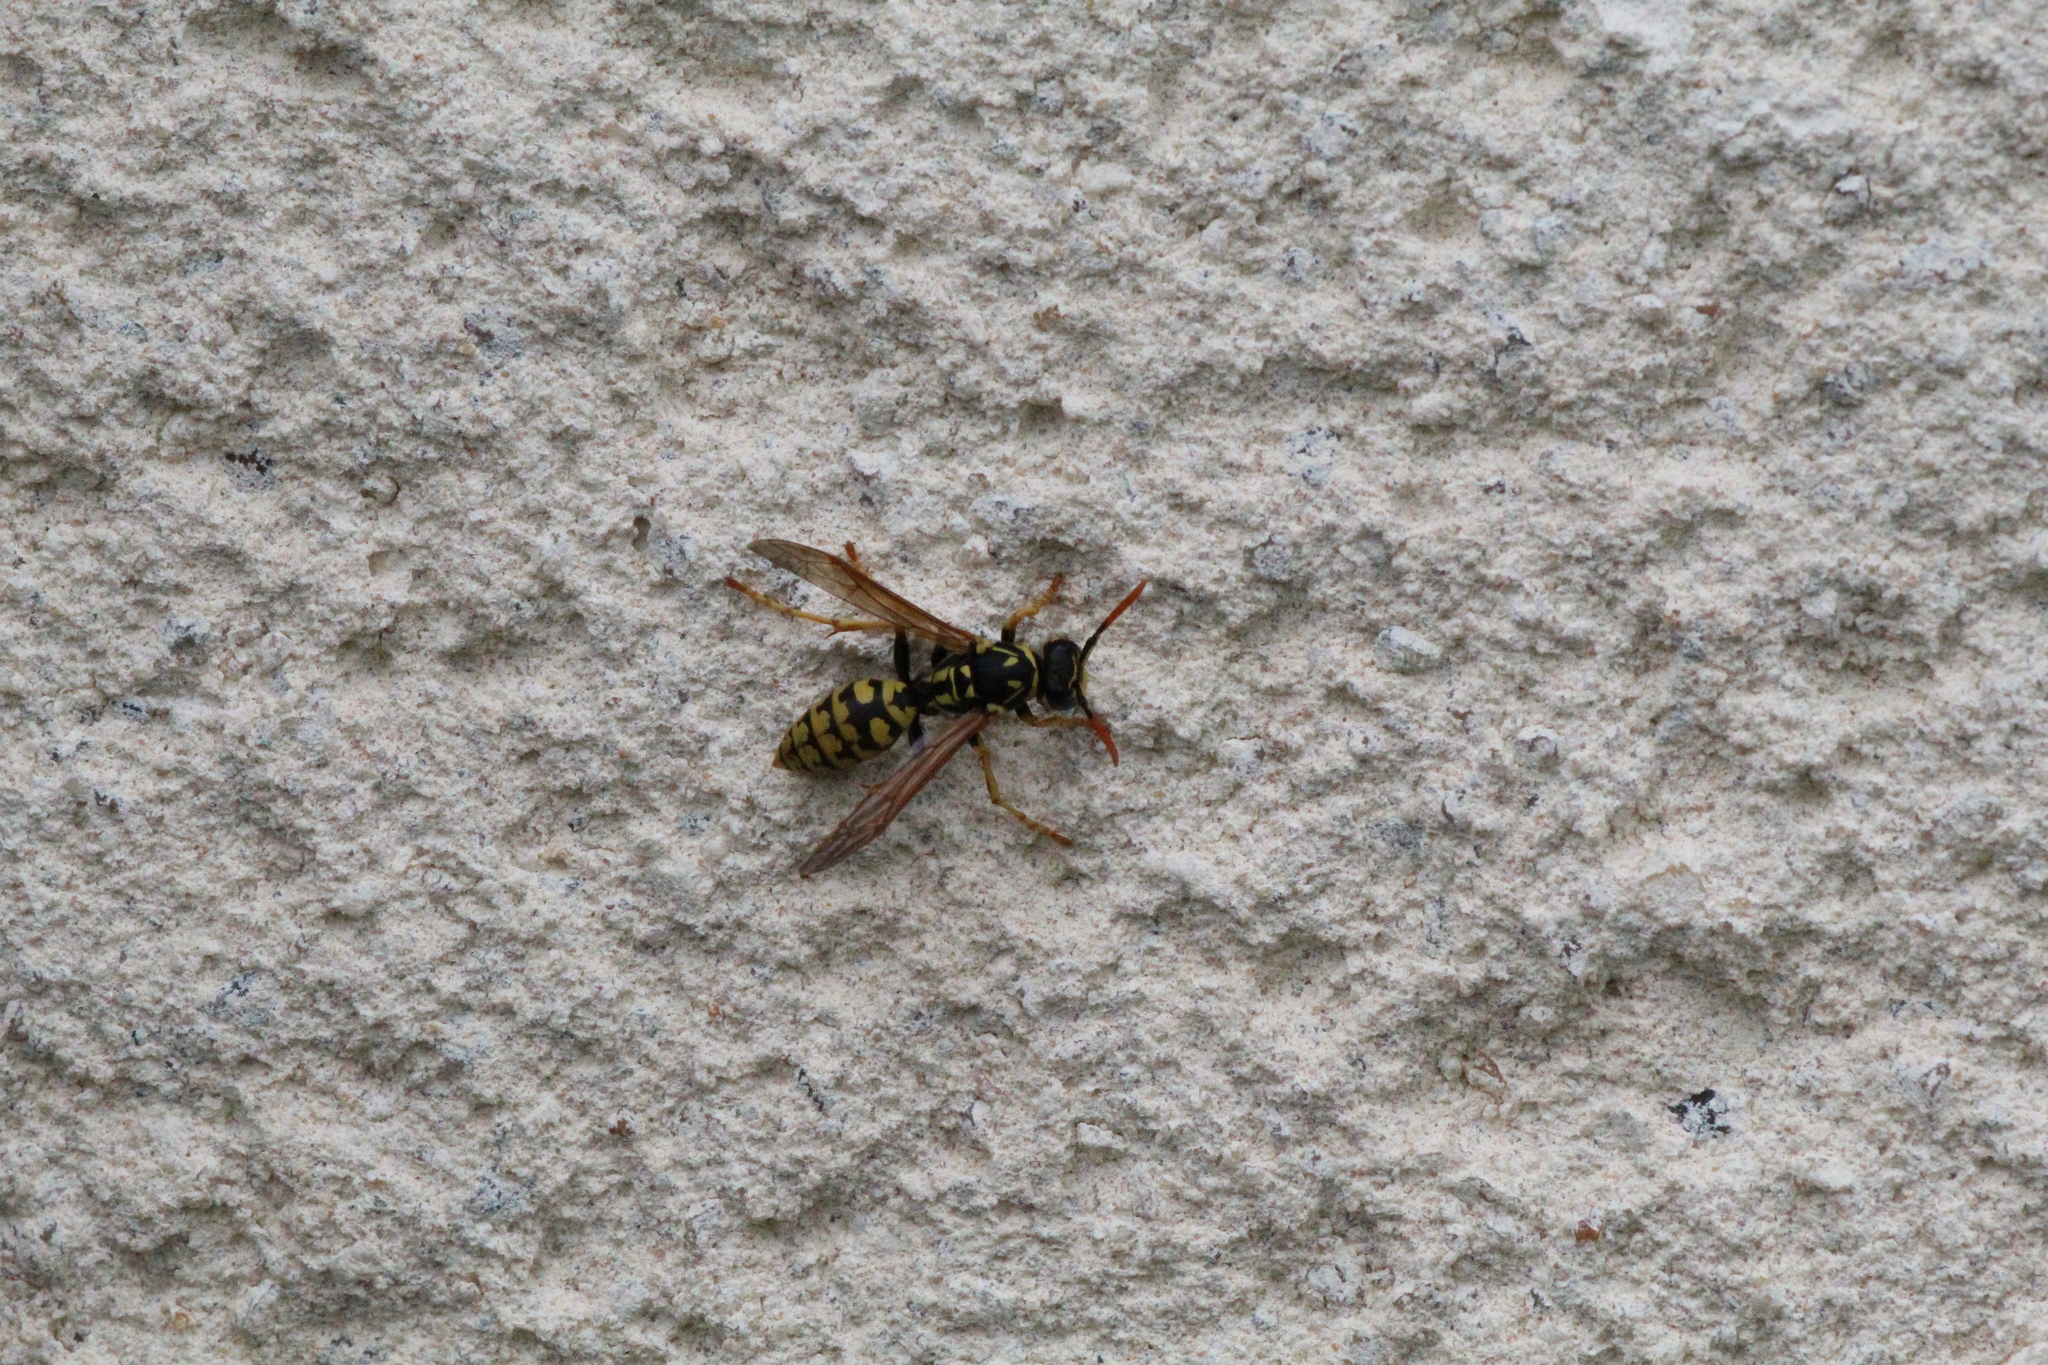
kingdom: Animalia
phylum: Arthropoda
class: Insecta
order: Hymenoptera
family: Eumenidae
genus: Polistes
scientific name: Polistes dominula
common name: Paper wasp
